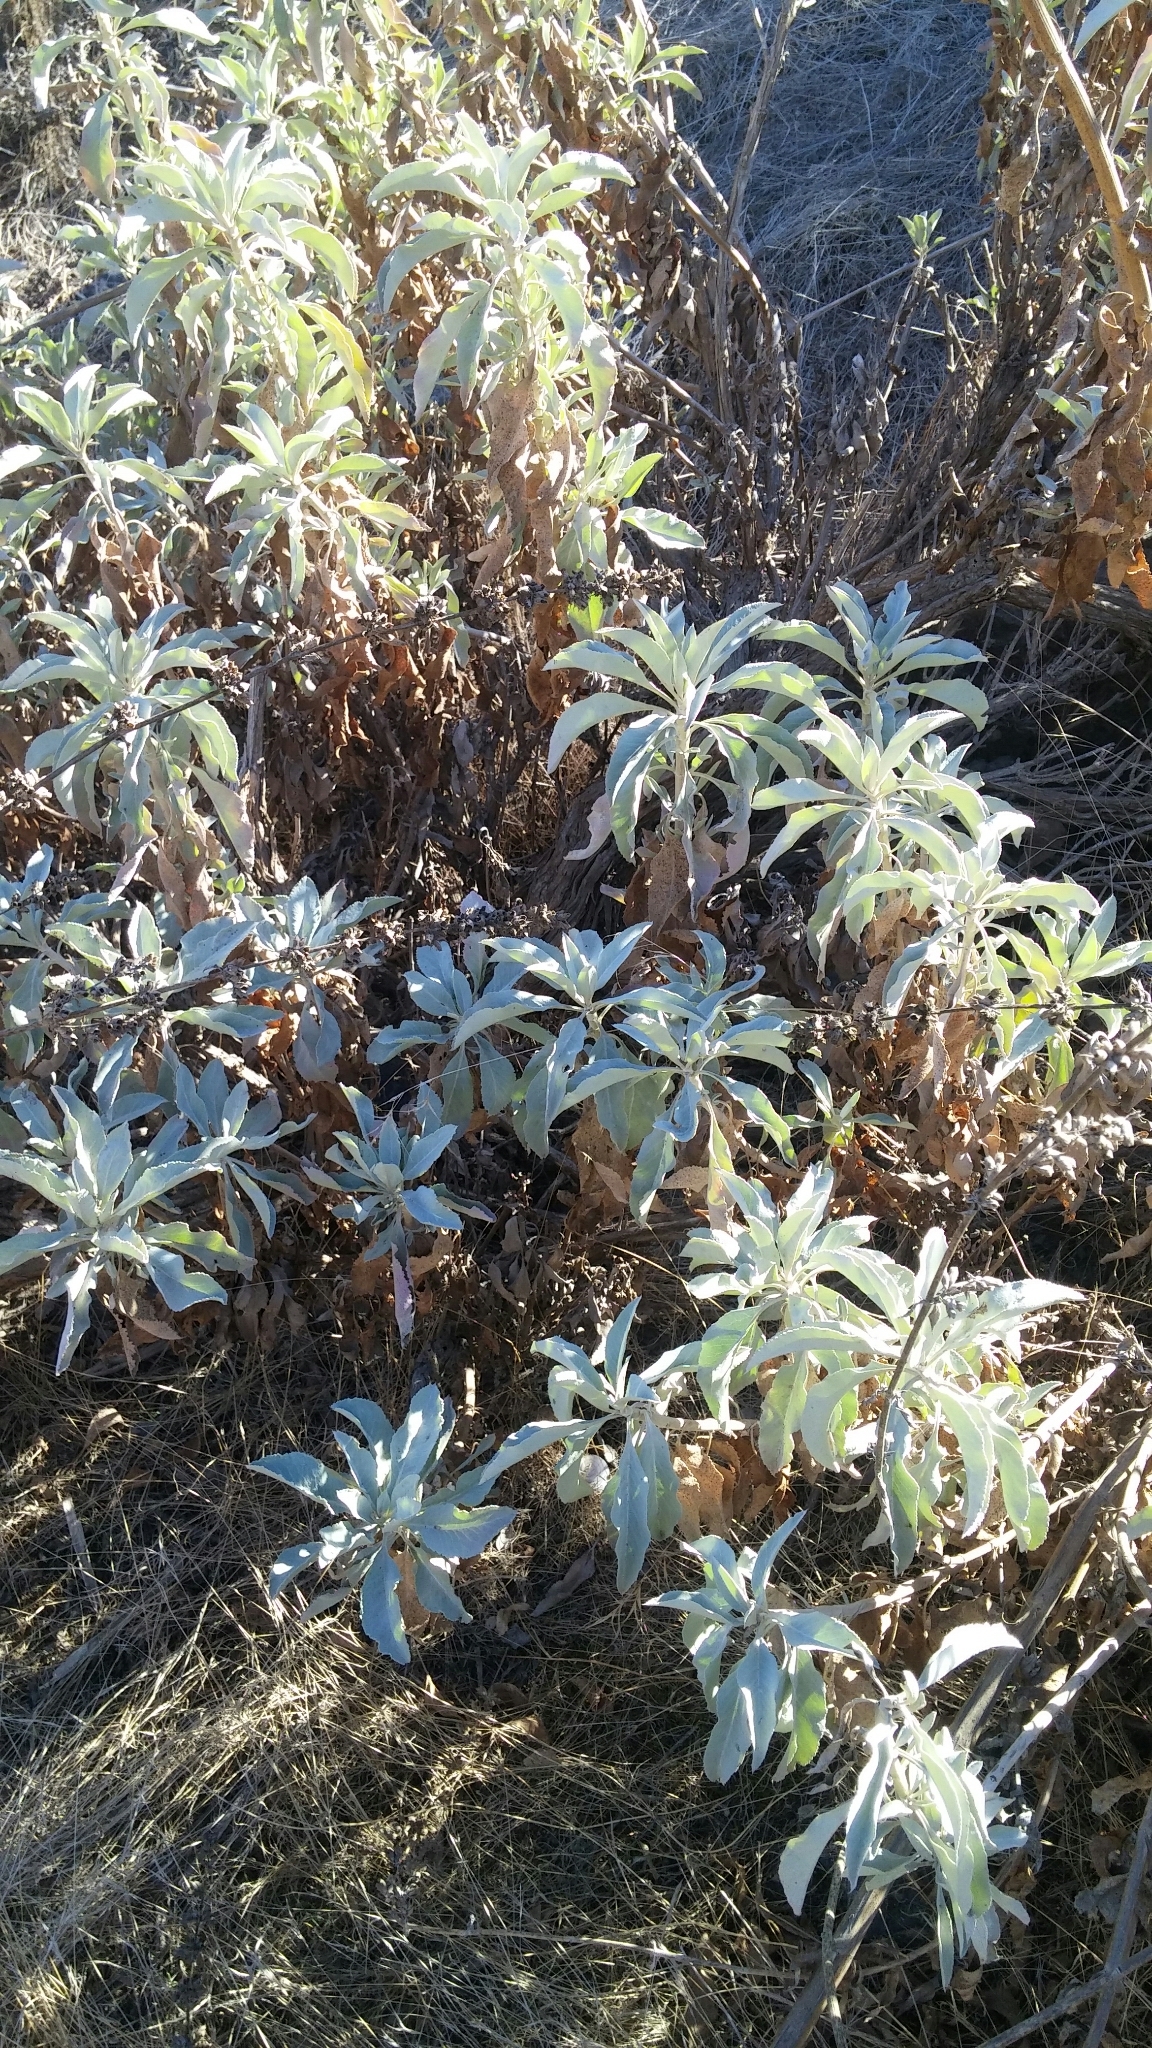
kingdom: Plantae
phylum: Tracheophyta
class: Magnoliopsida
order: Lamiales
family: Lamiaceae
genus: Salvia
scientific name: Salvia apiana
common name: White sage
